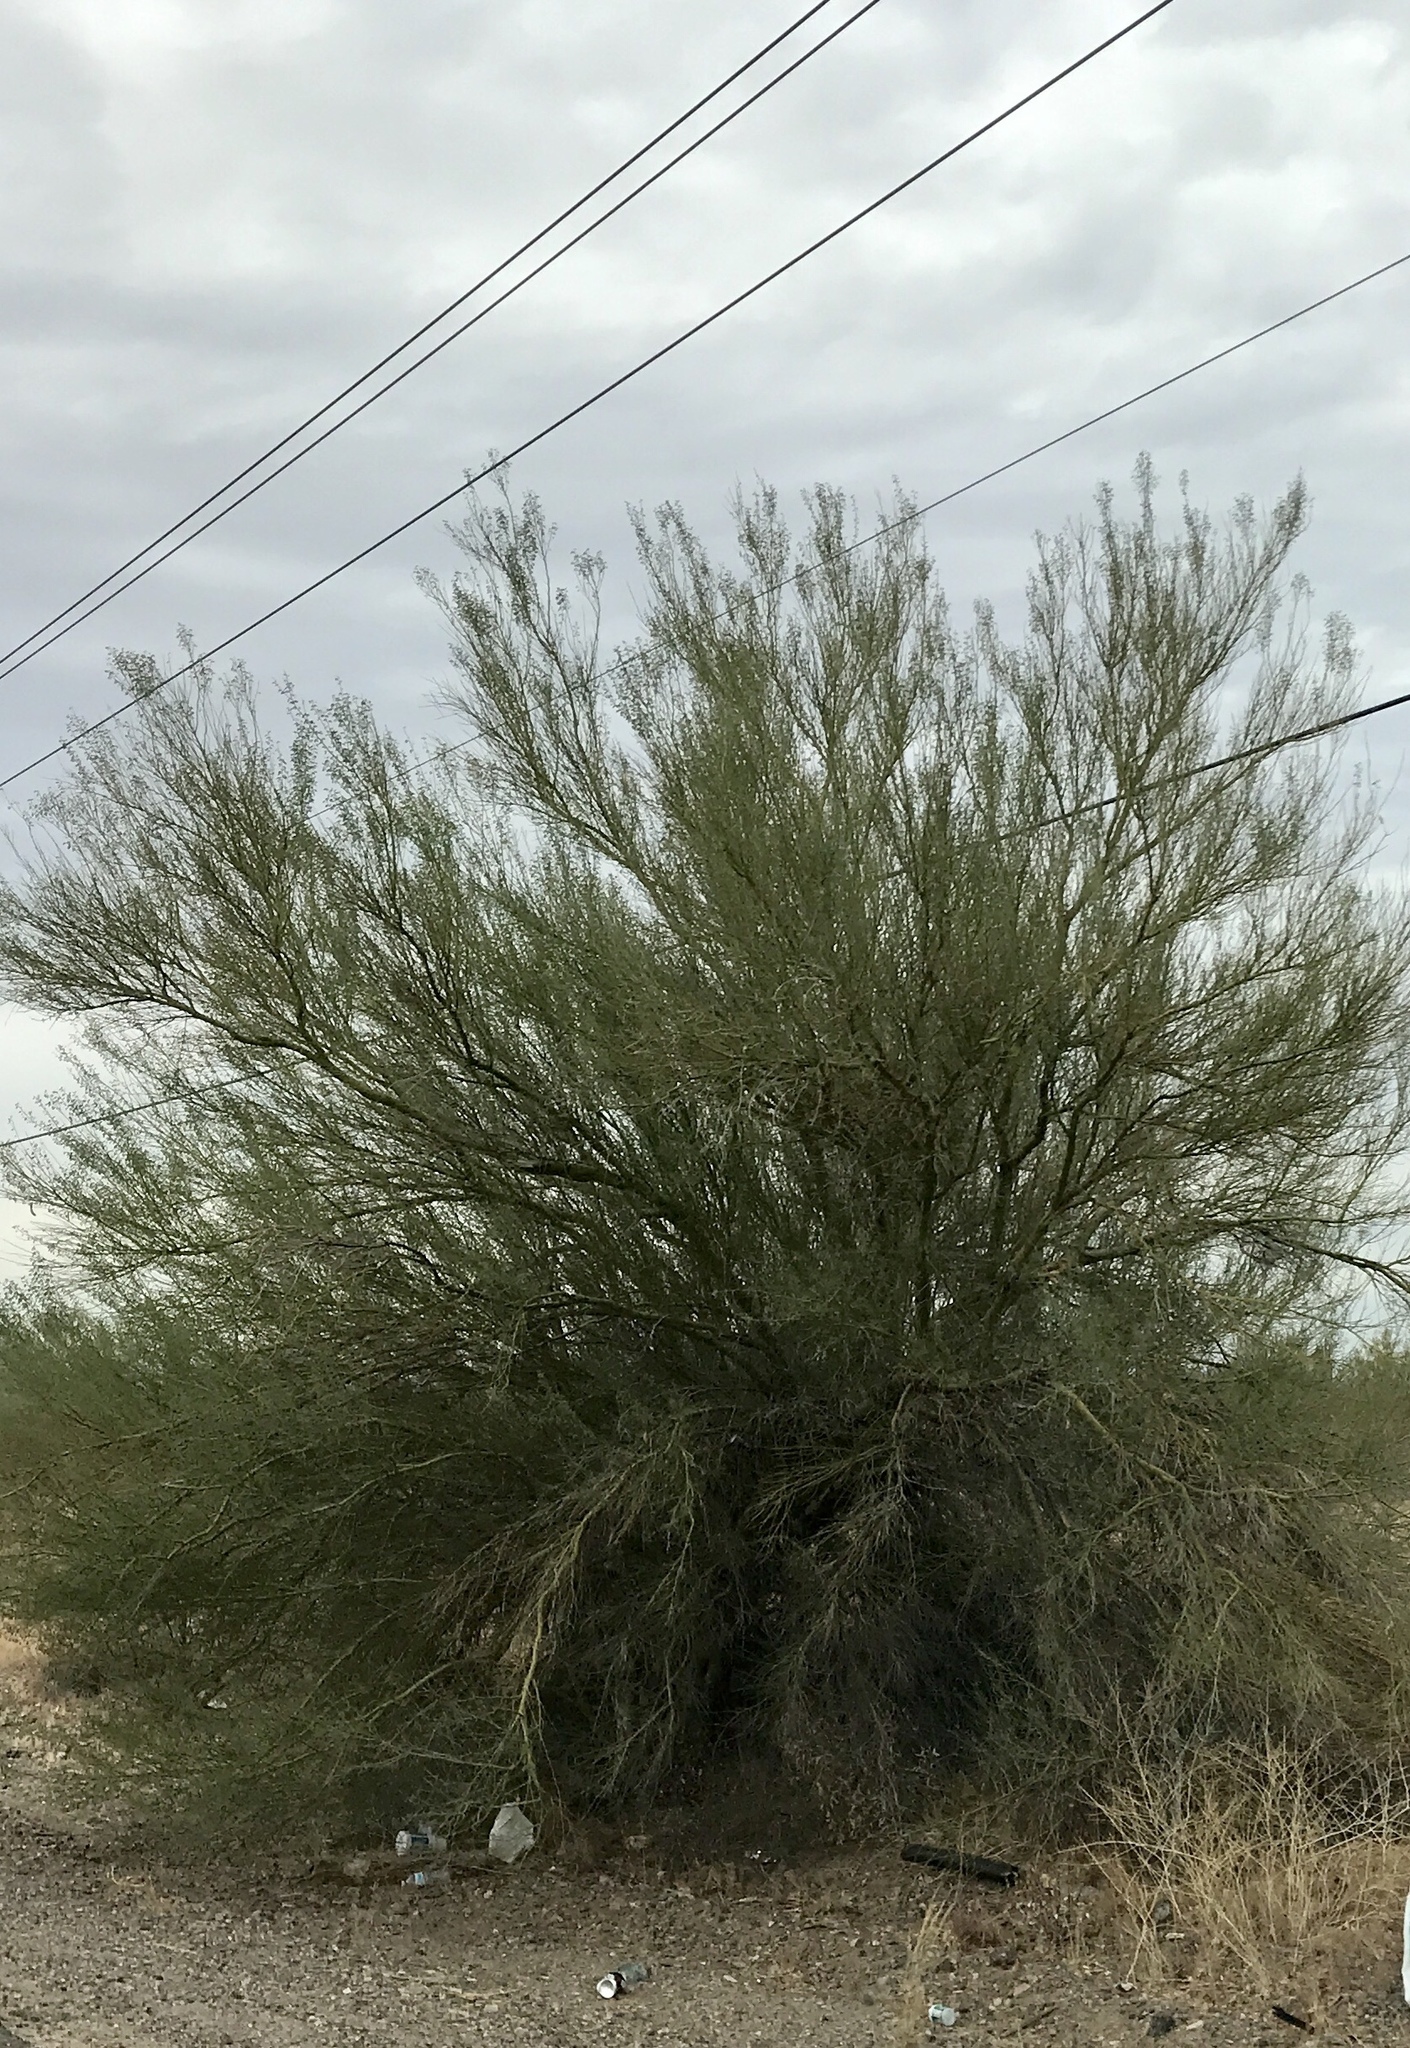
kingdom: Plantae
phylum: Tracheophyta
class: Magnoliopsida
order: Fabales
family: Fabaceae
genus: Parkinsonia
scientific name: Parkinsonia florida
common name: Blue paloverde
